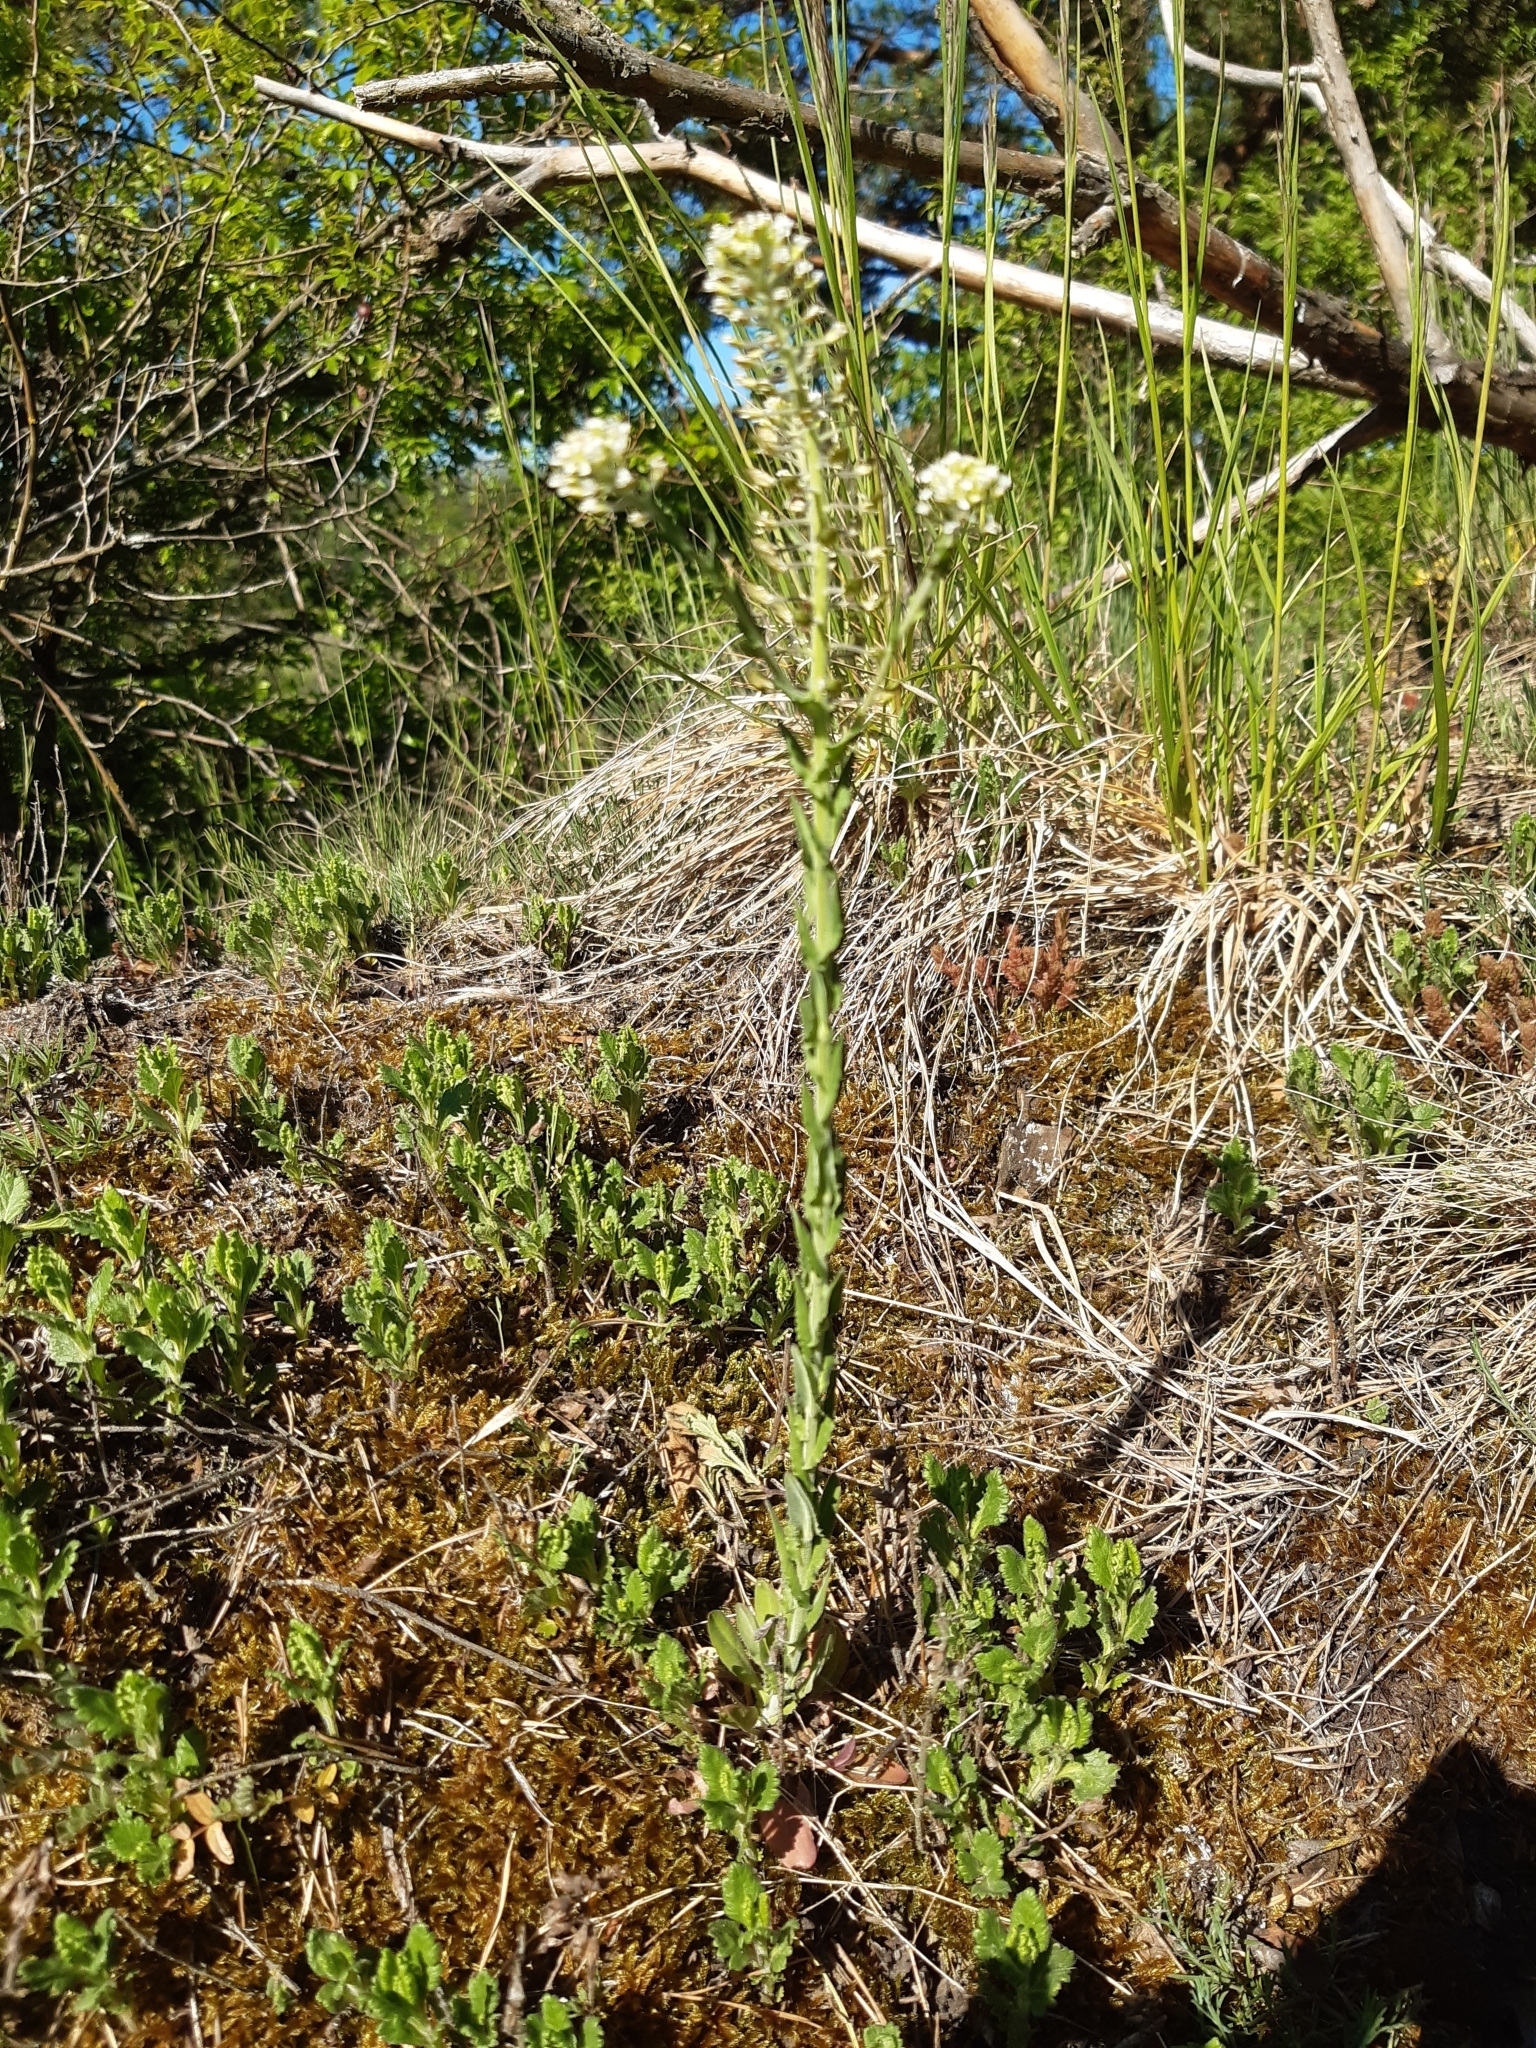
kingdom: Plantae
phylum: Tracheophyta
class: Magnoliopsida
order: Brassicales
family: Brassicaceae
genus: Lepidium
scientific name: Lepidium campestre
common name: Field pepperwort
